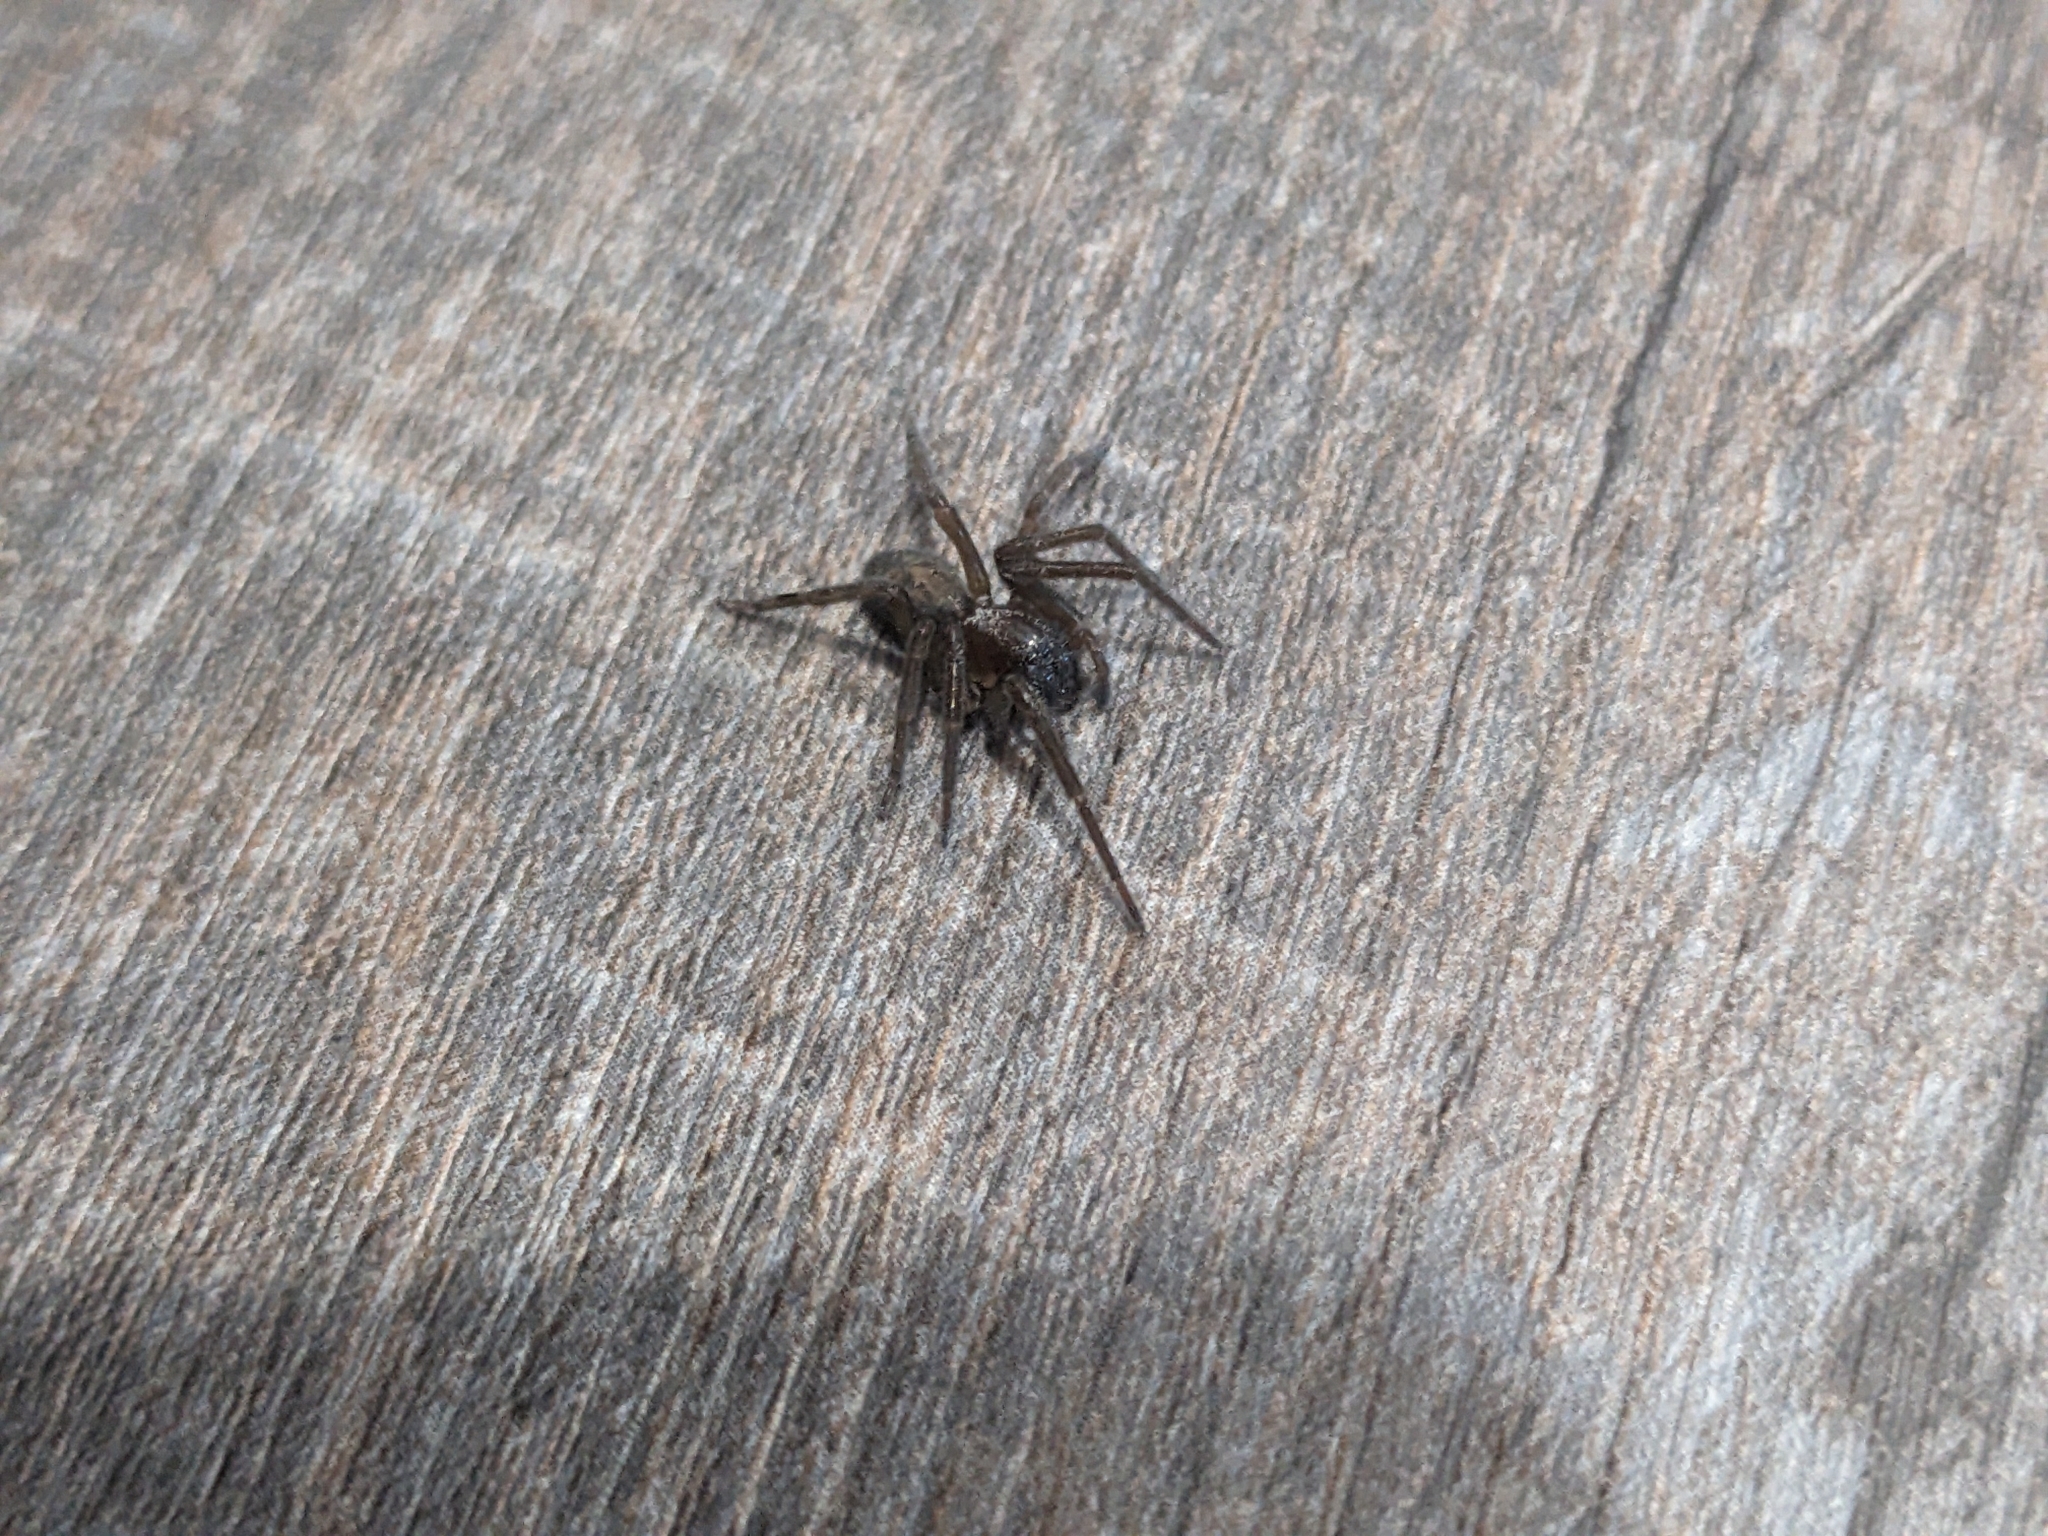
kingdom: Animalia
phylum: Arthropoda
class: Arachnida
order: Araneae
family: Amaurobiidae
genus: Amaurobius
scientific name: Amaurobius ferox
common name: Black laceweaver
